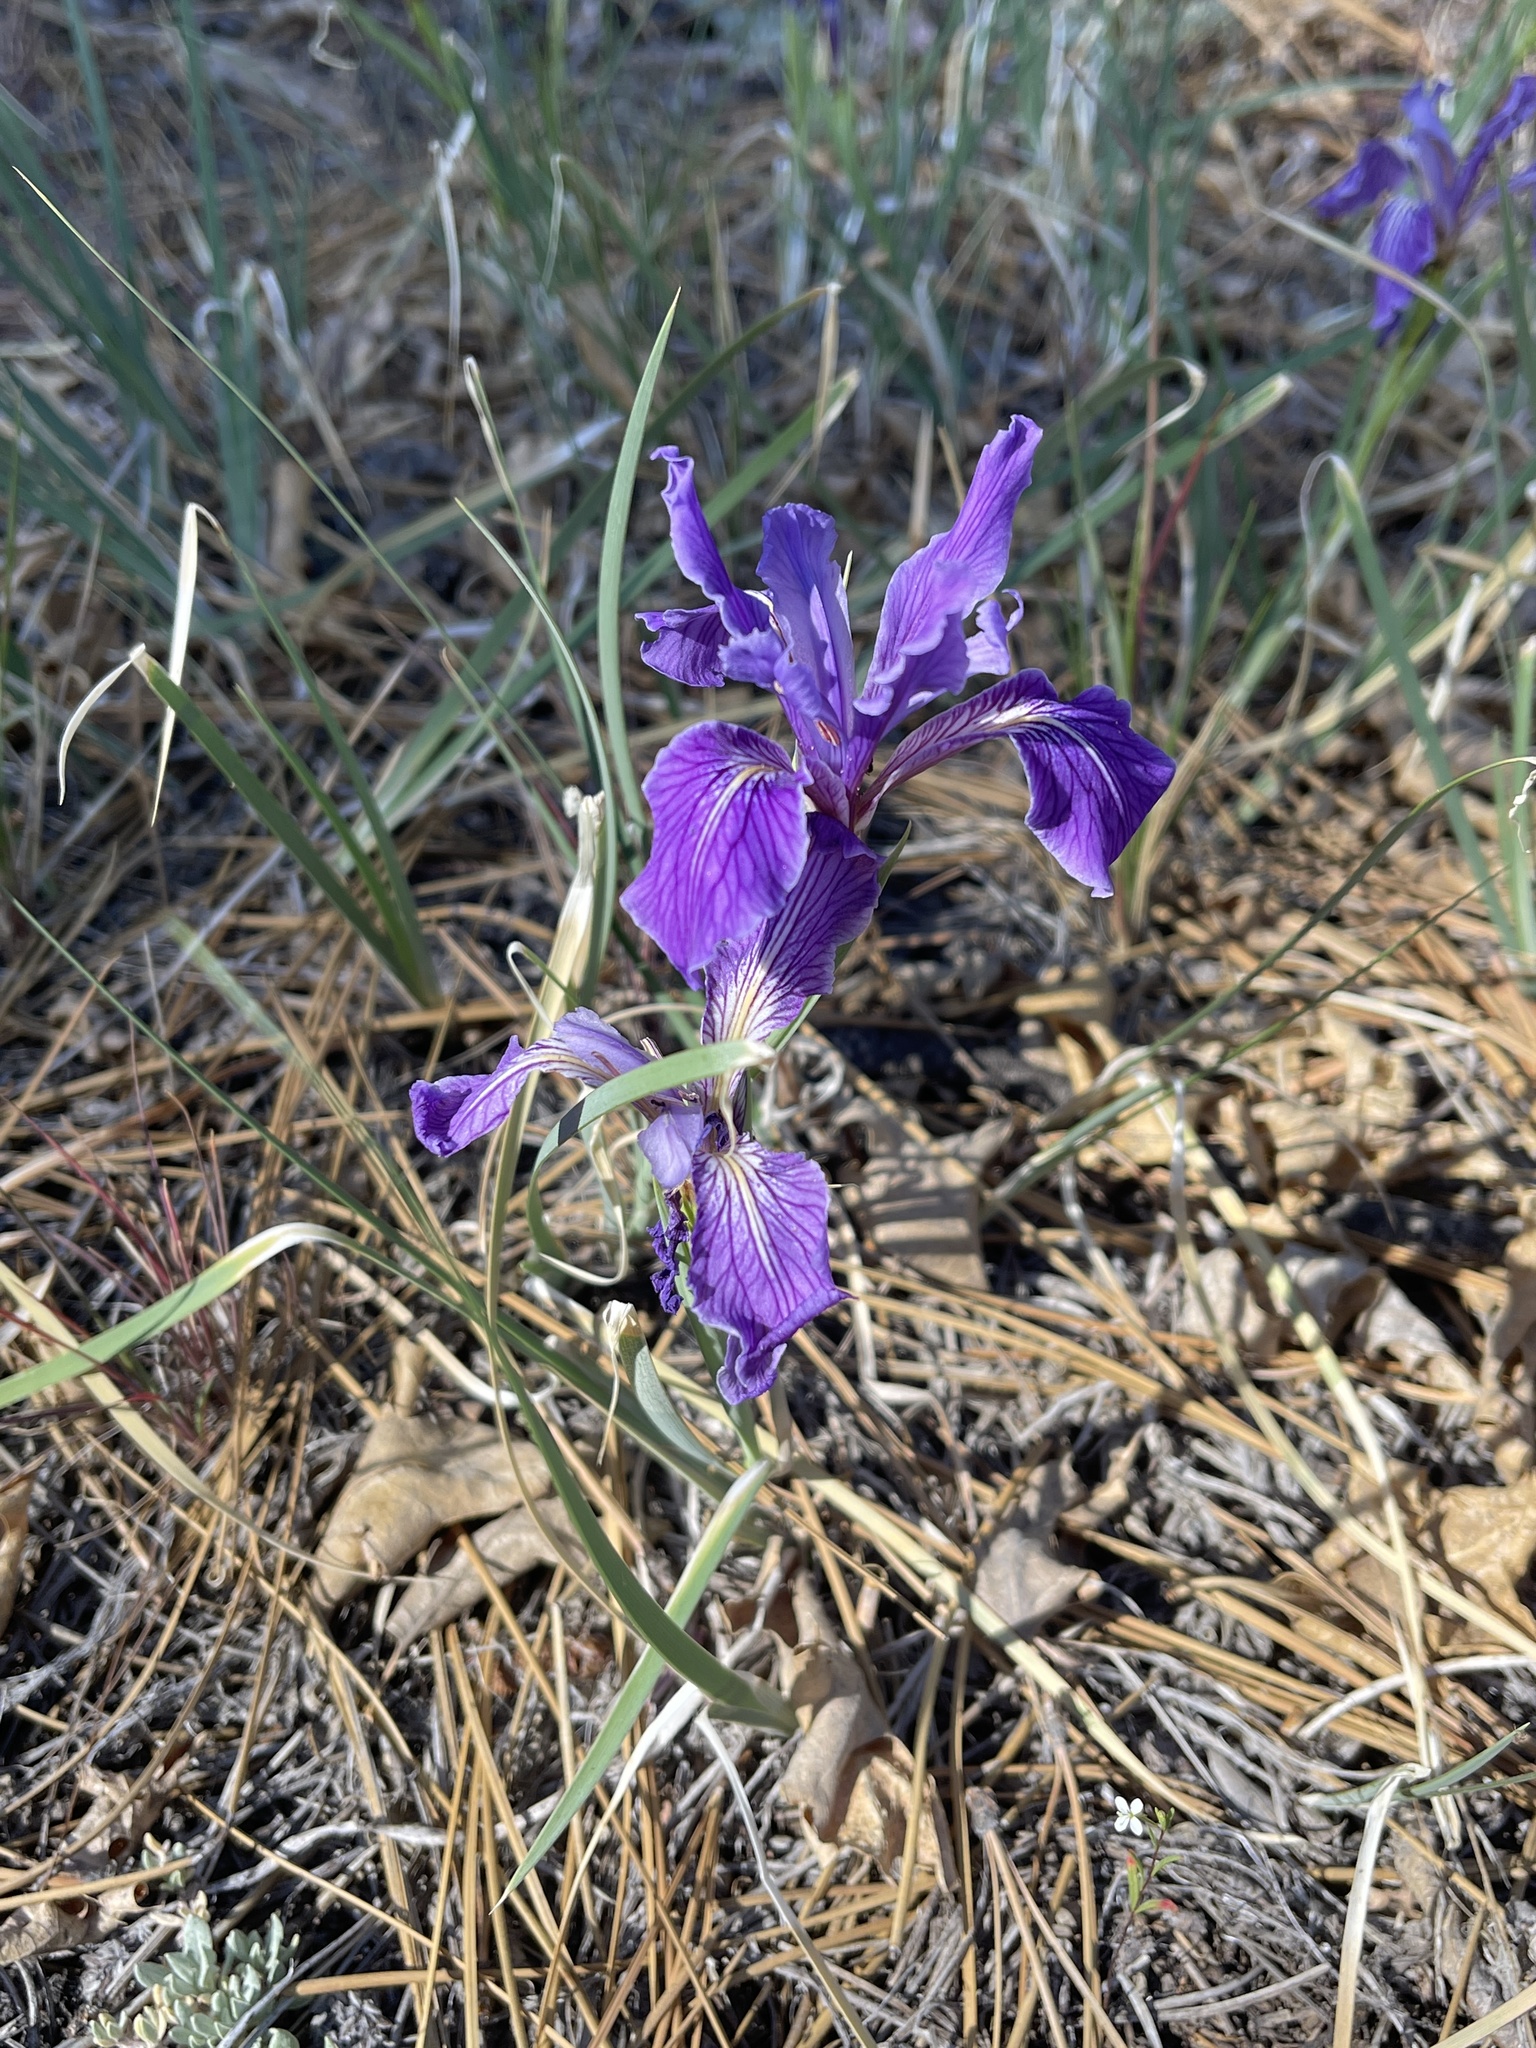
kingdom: Plantae
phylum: Tracheophyta
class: Liliopsida
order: Asparagales
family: Iridaceae
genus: Iris
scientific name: Iris hartwegii
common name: Sierra iris
